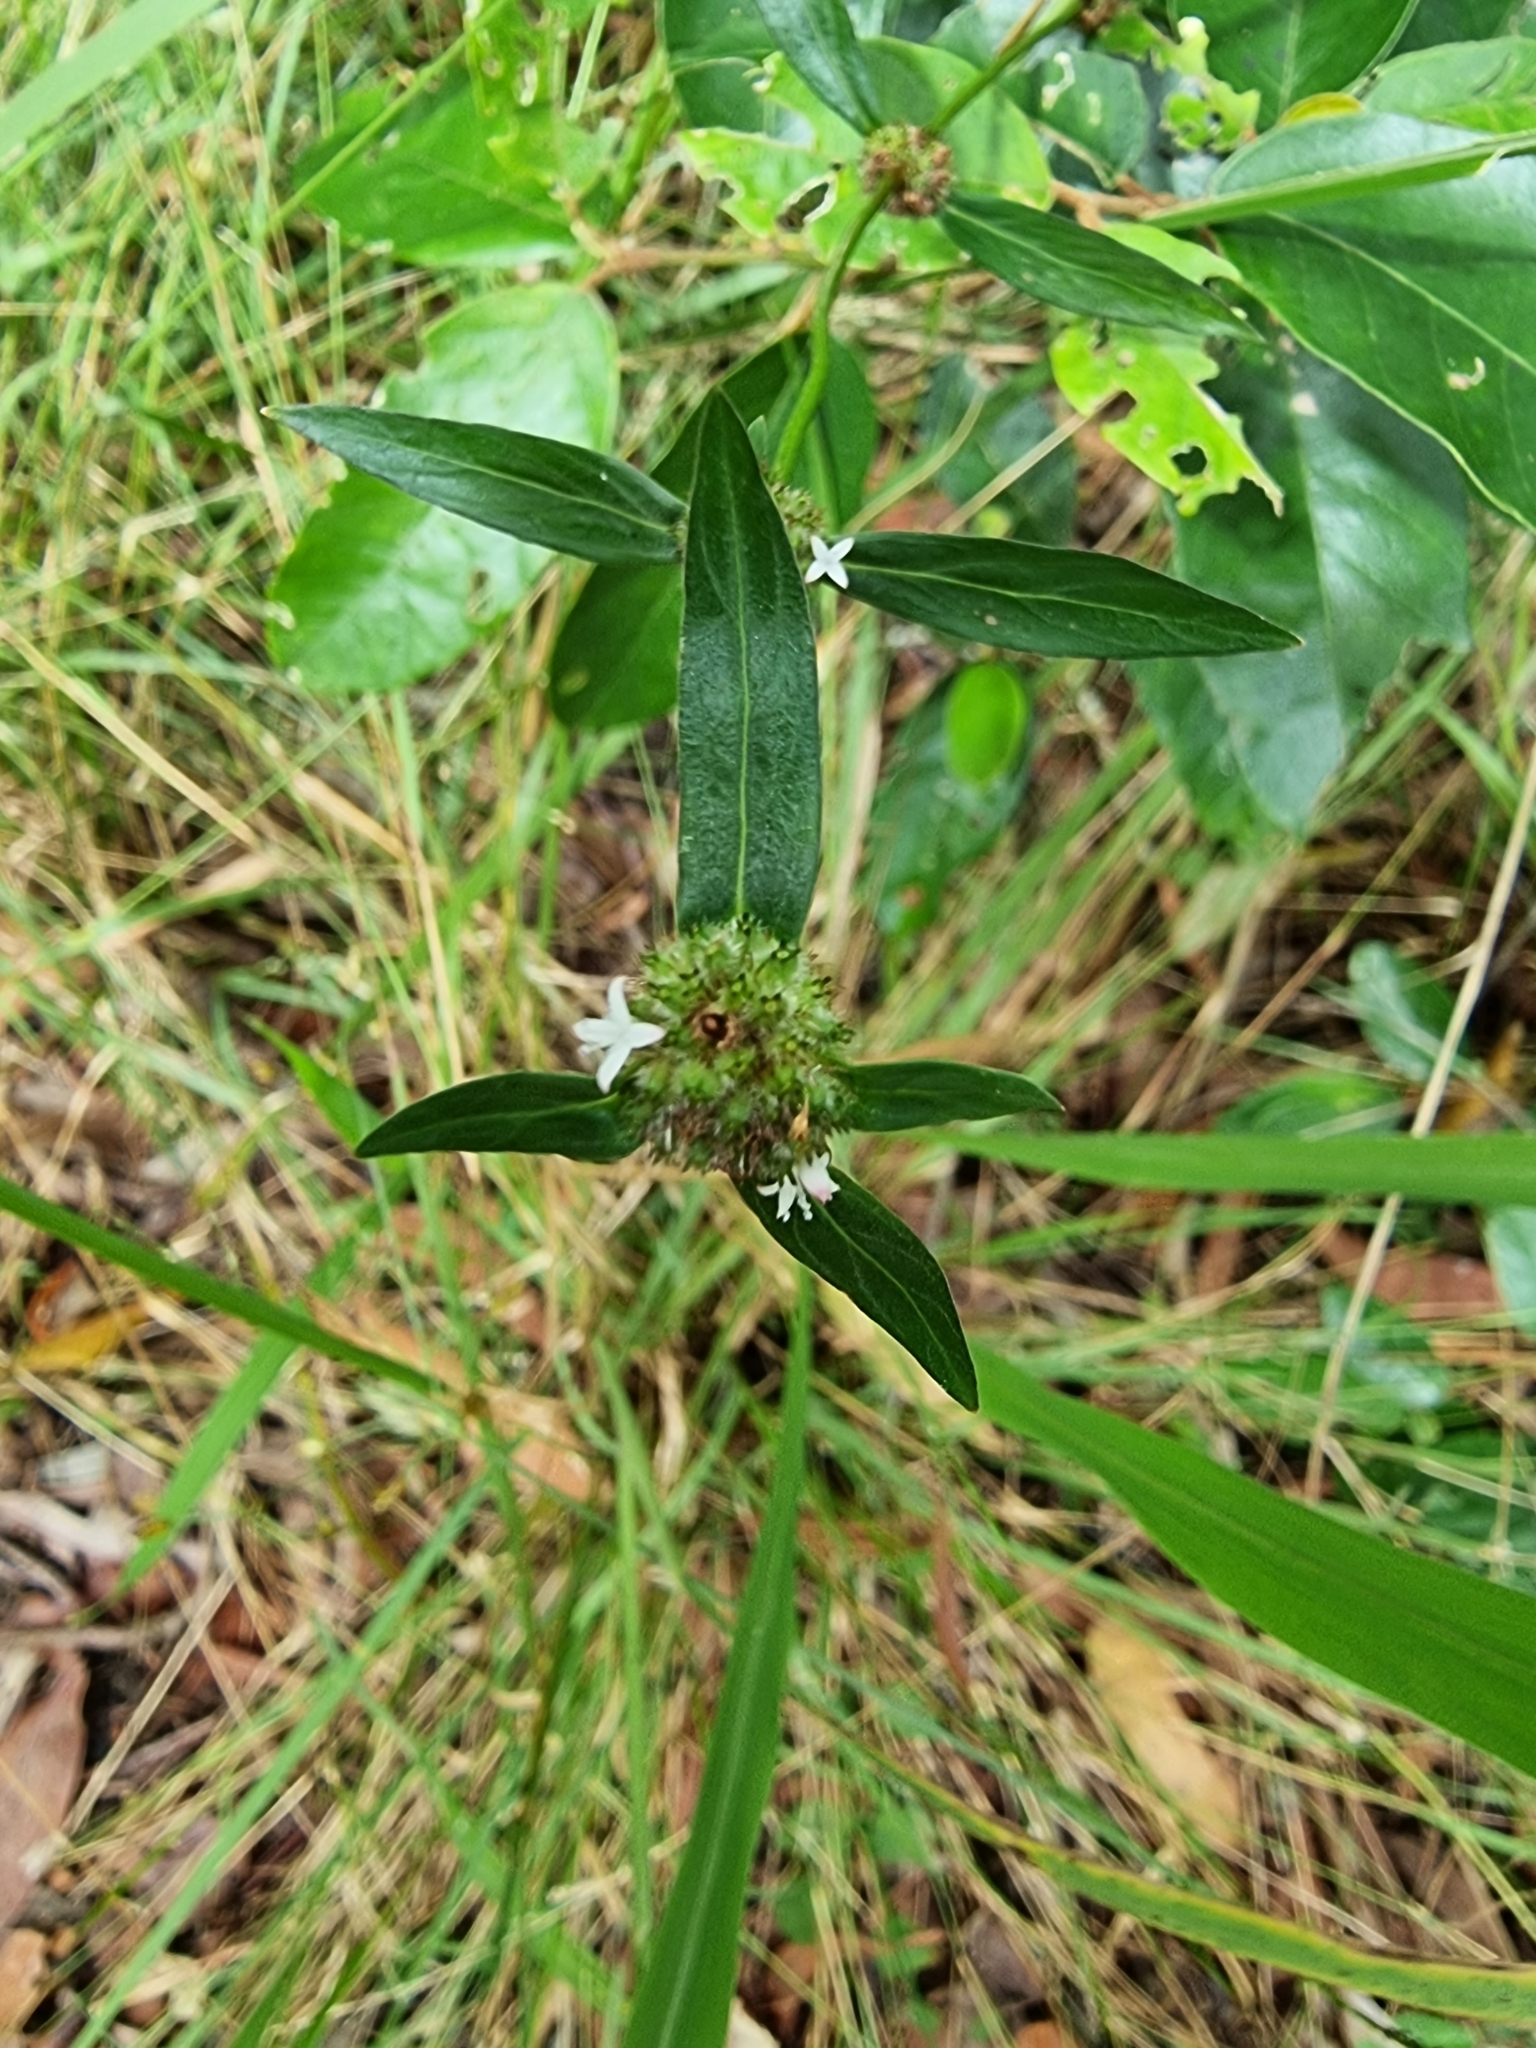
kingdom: Plantae
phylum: Tracheophyta
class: Magnoliopsida
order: Gentianales
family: Rubiaceae
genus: Spermacoce
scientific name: Spermacoce remota
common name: Woodland false buttonweed
